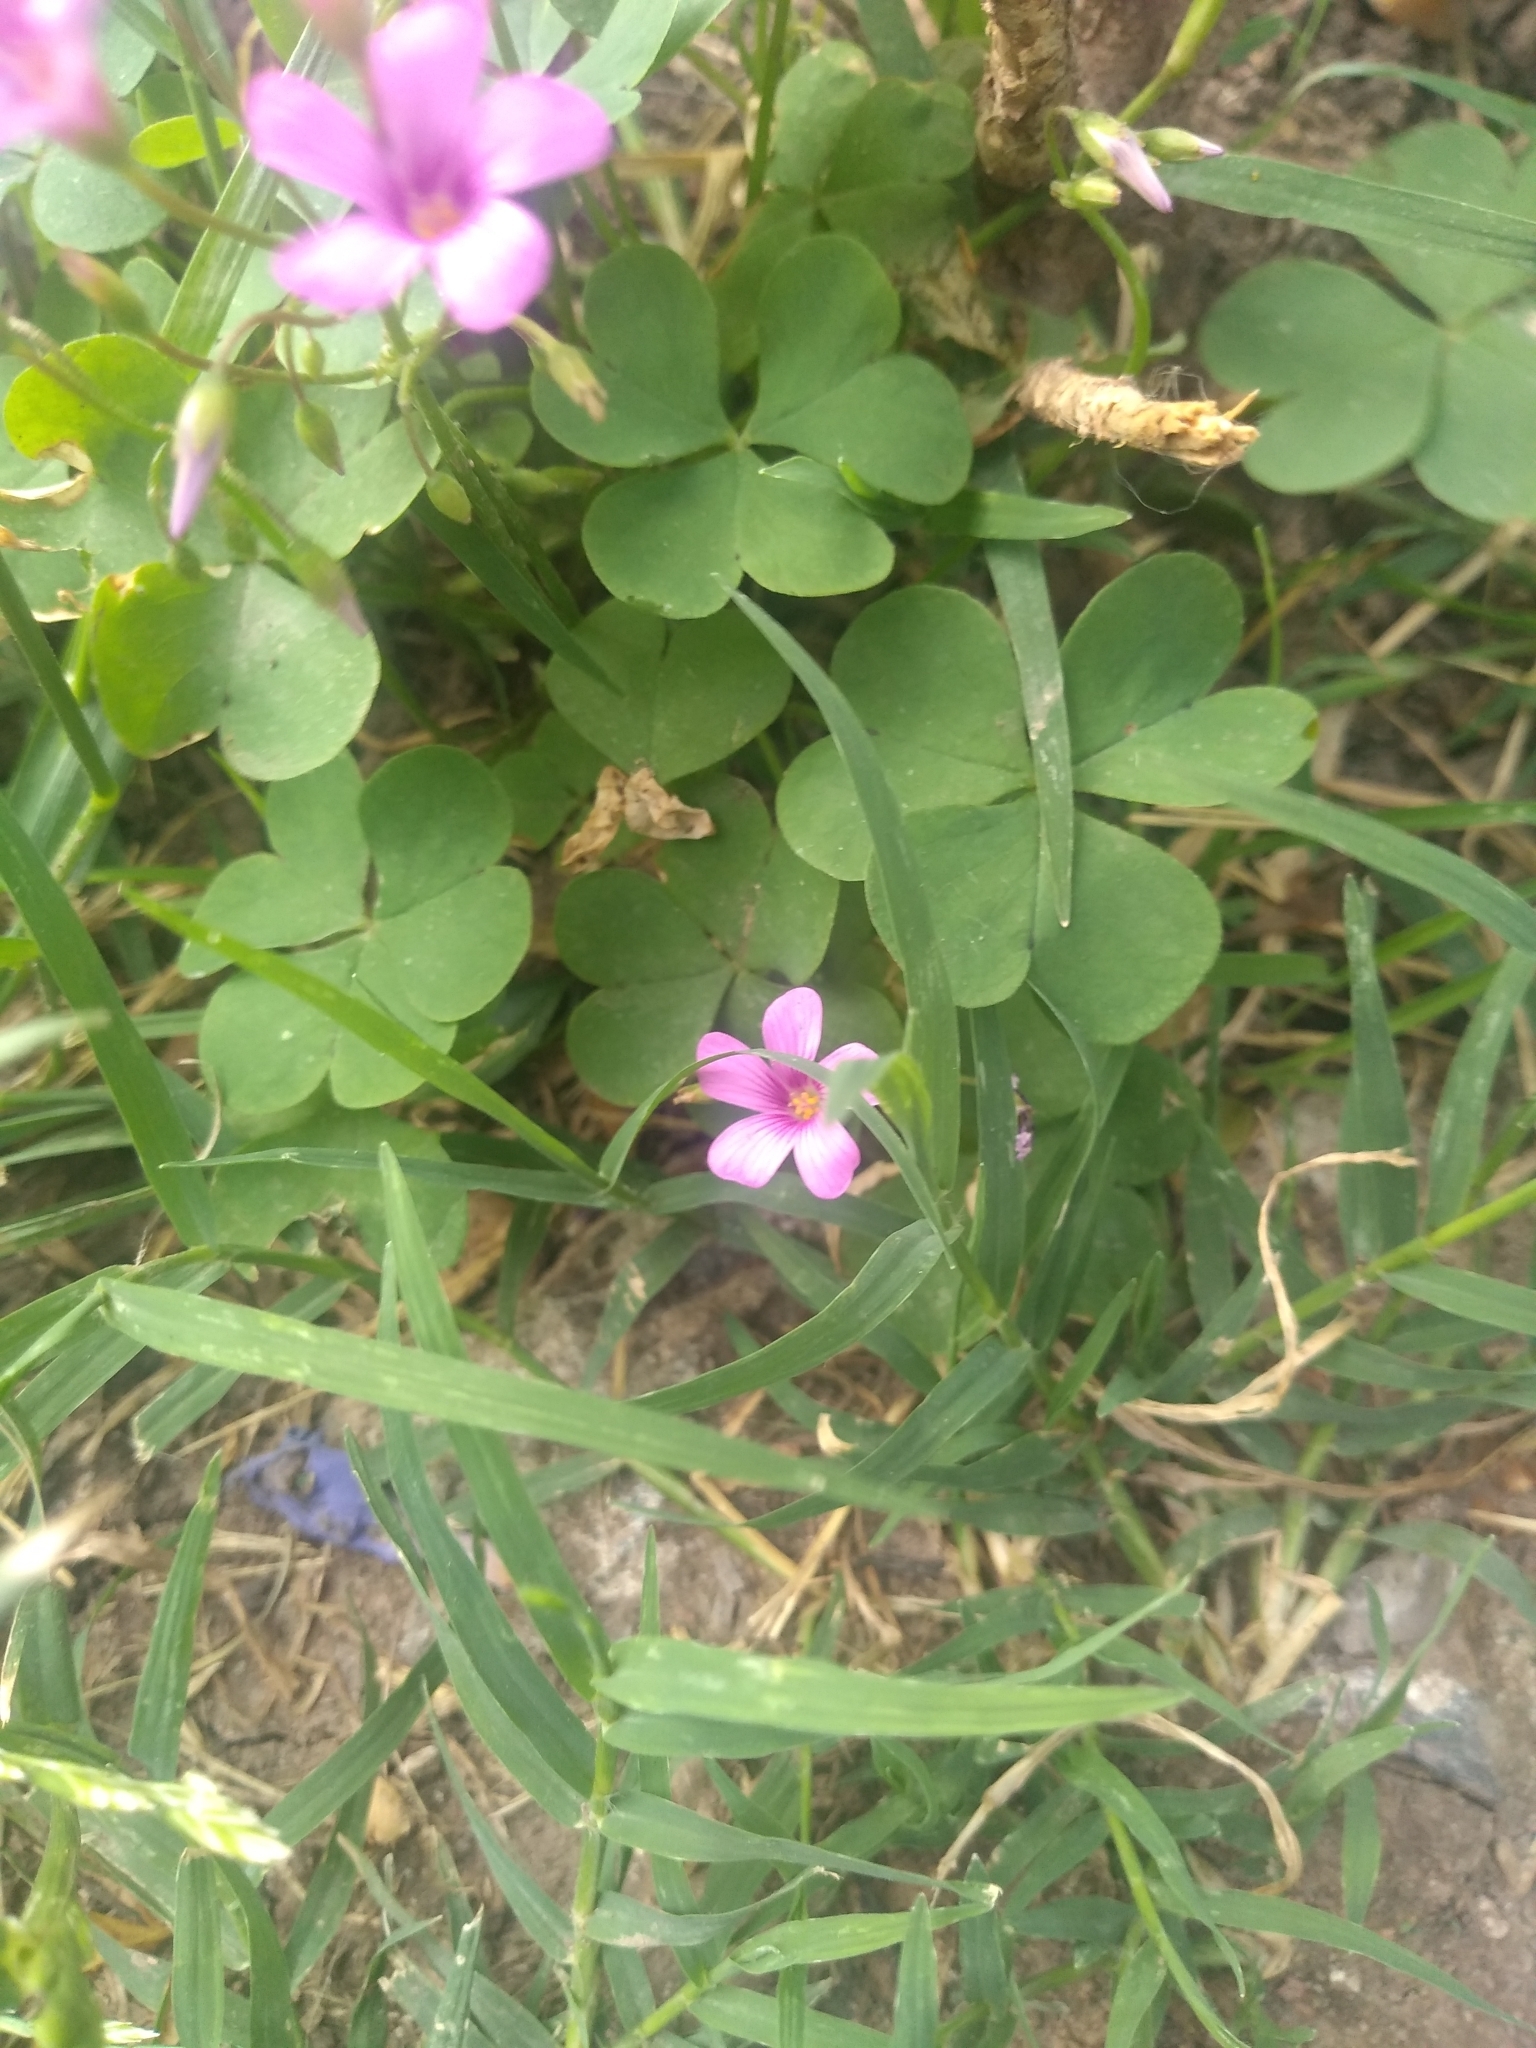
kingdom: Plantae
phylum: Tracheophyta
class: Magnoliopsida
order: Oxalidales
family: Oxalidaceae
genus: Oxalis
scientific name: Oxalis articulata
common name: Pink-sorrel
